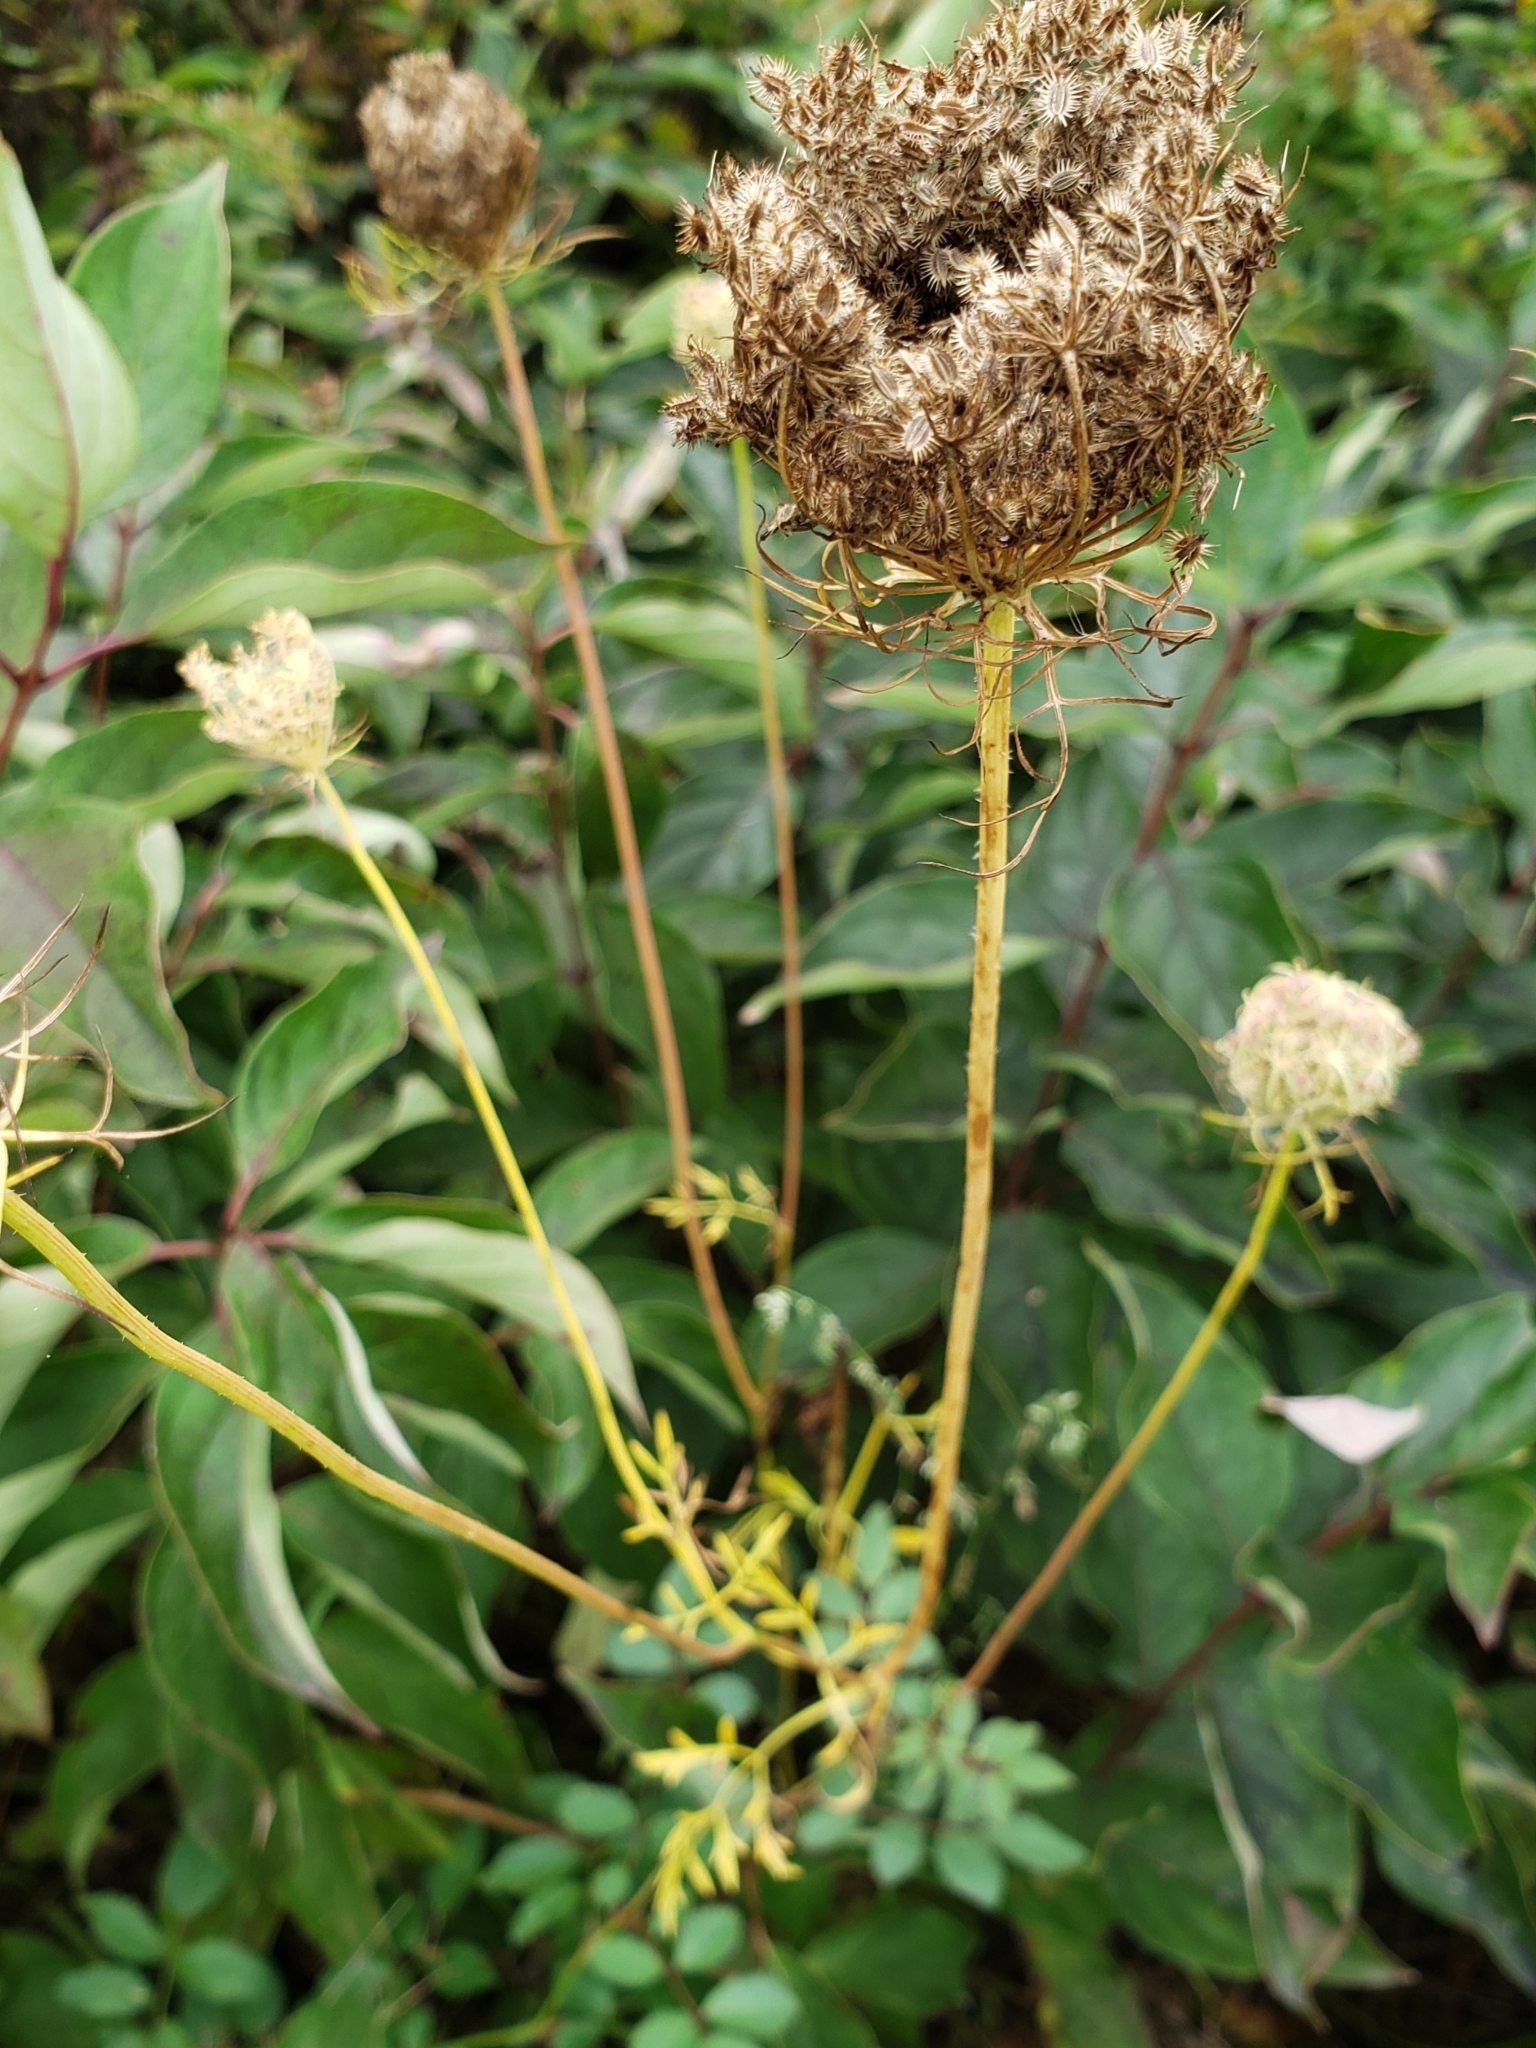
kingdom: Plantae
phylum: Tracheophyta
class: Magnoliopsida
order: Apiales
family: Apiaceae
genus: Daucus
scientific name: Daucus carota
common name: Wild carrot
